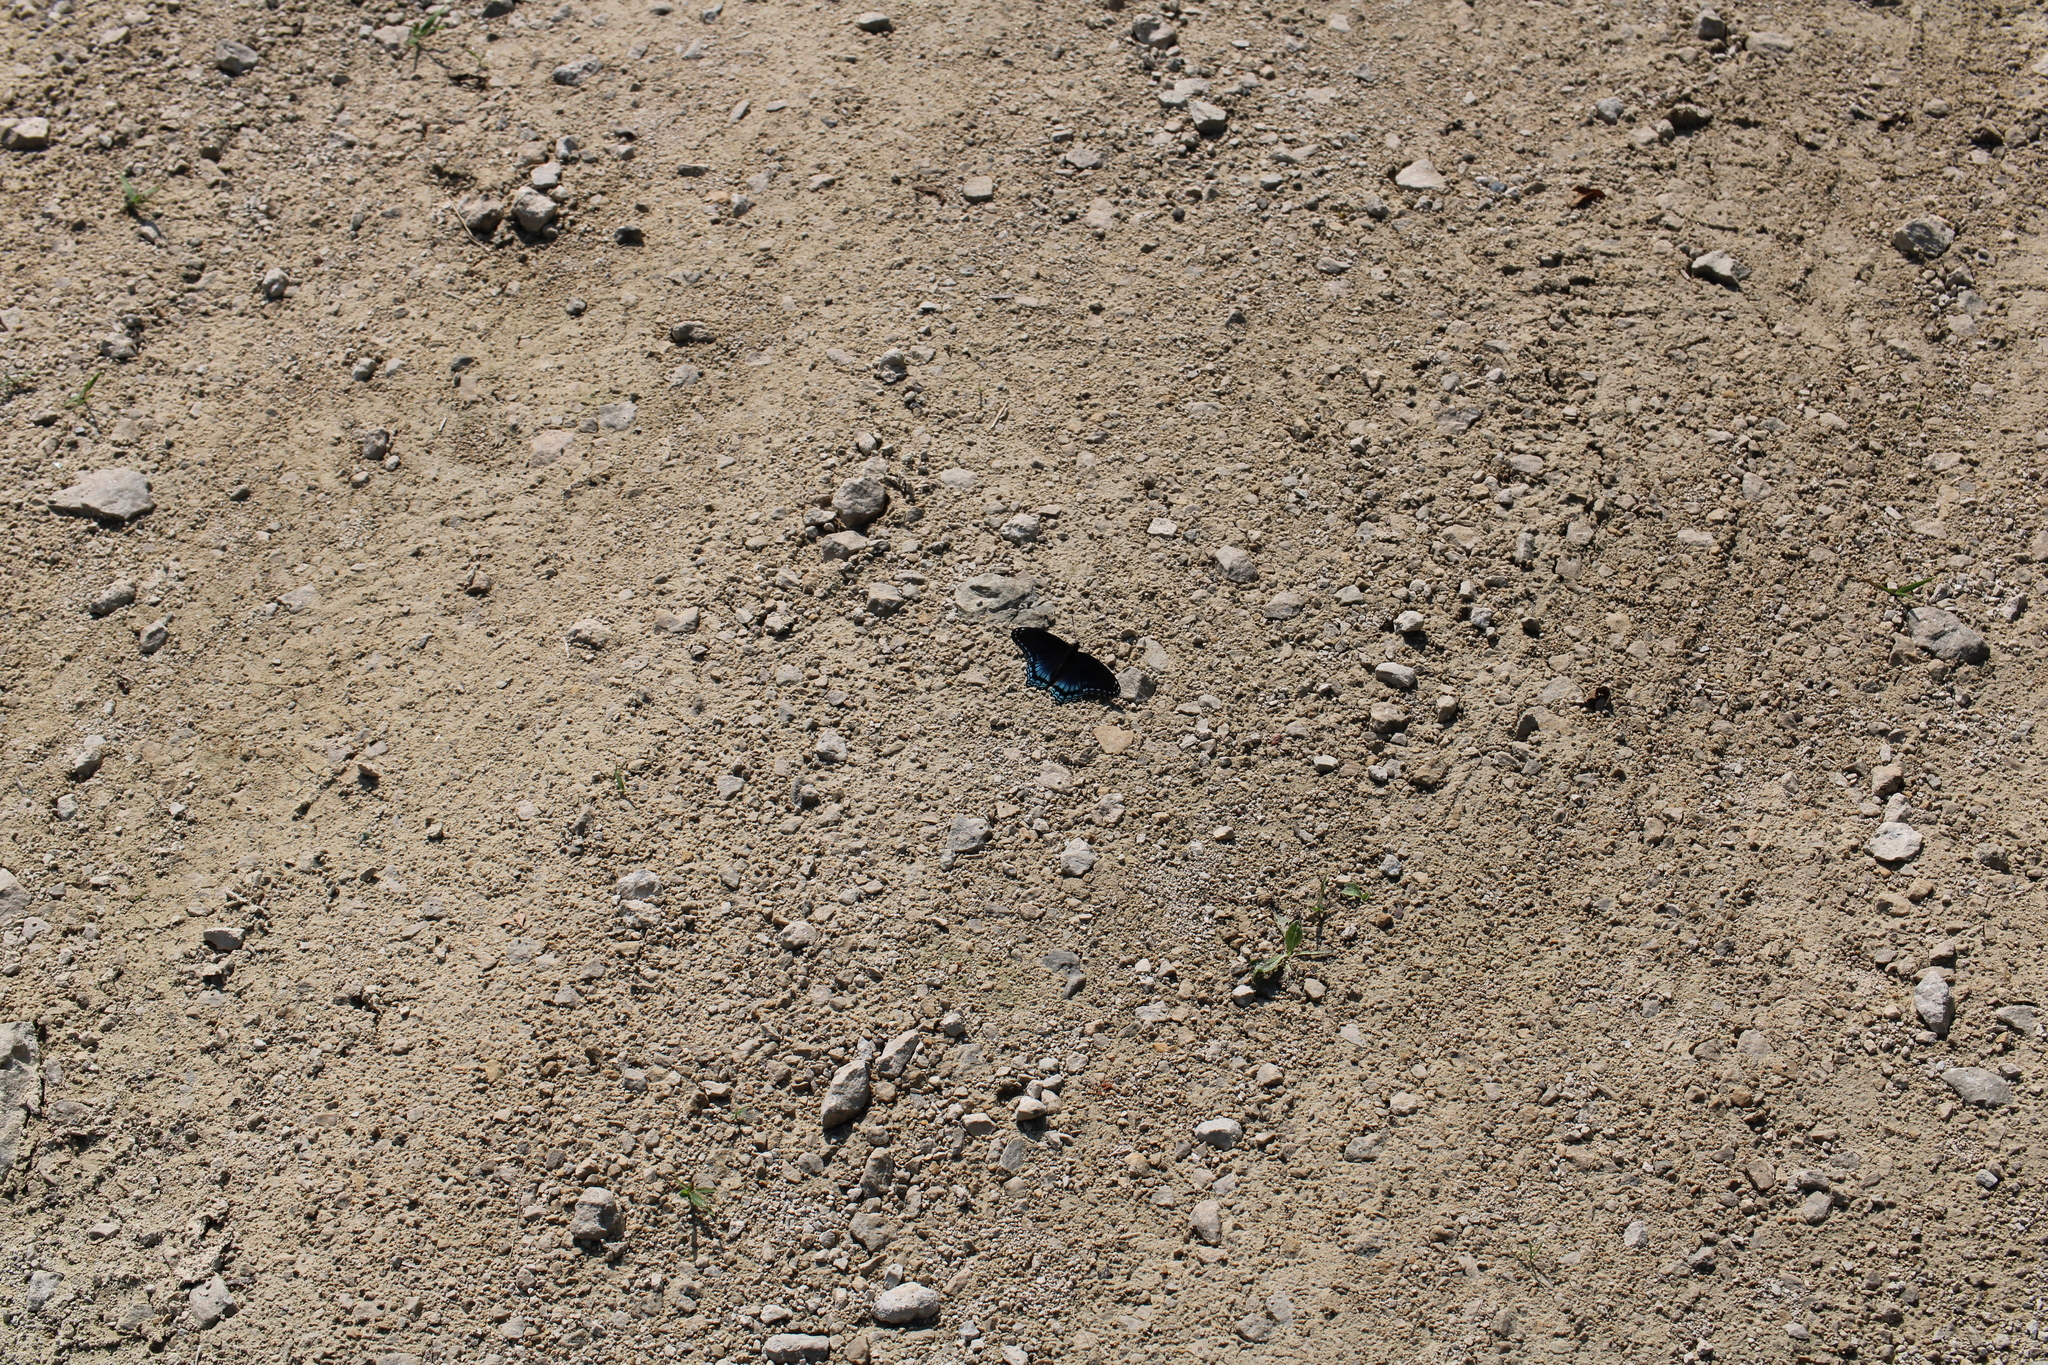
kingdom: Animalia
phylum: Arthropoda
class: Insecta
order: Lepidoptera
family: Nymphalidae
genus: Limenitis
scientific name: Limenitis astyanax
